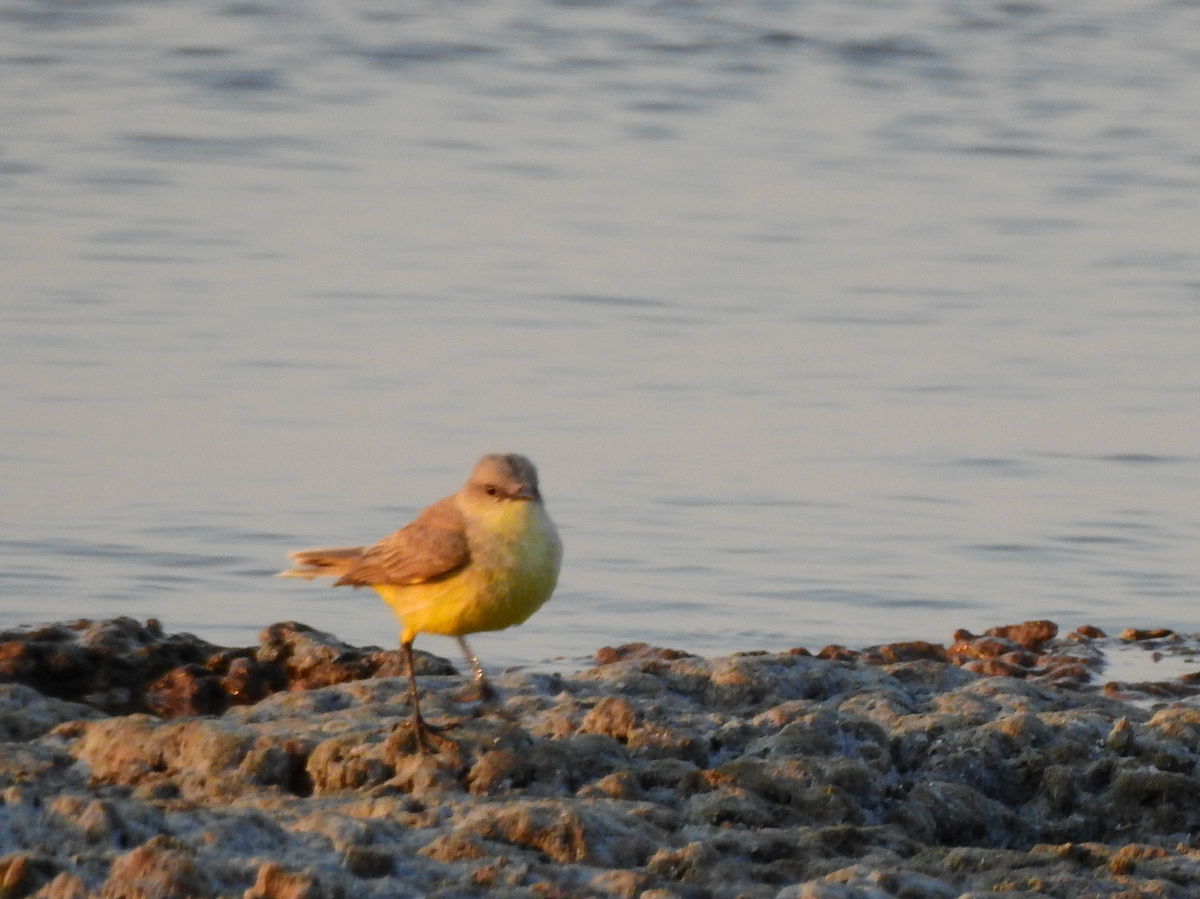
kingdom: Animalia
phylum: Chordata
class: Aves
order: Passeriformes
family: Tyrannidae
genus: Machetornis
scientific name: Machetornis rixosa
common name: Cattle tyrant
